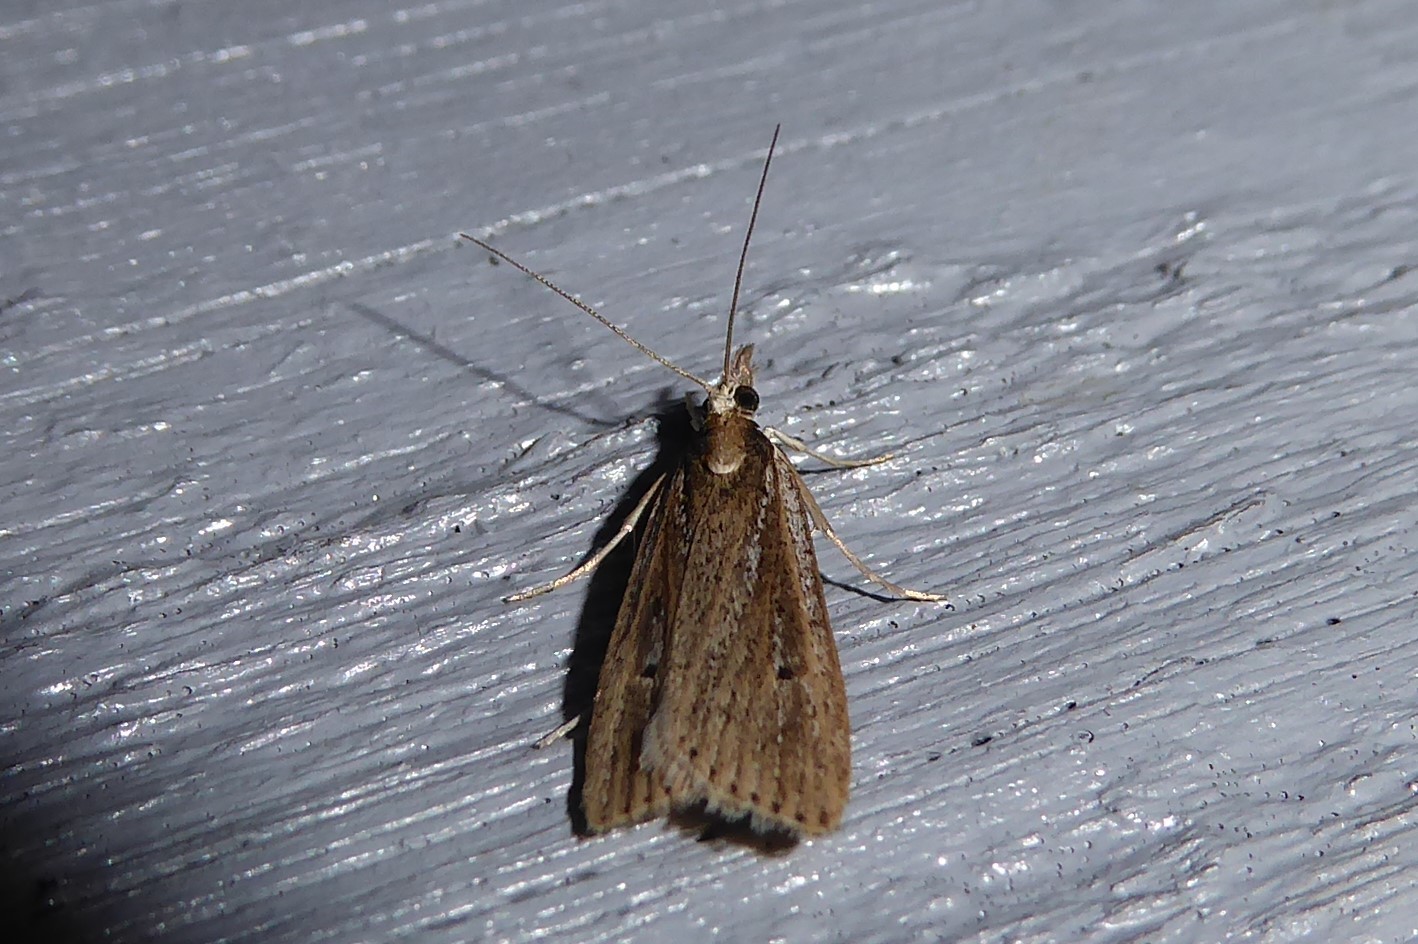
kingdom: Animalia
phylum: Arthropoda
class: Insecta
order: Lepidoptera
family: Crambidae
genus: Eudonia
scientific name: Eudonia sabulosella
